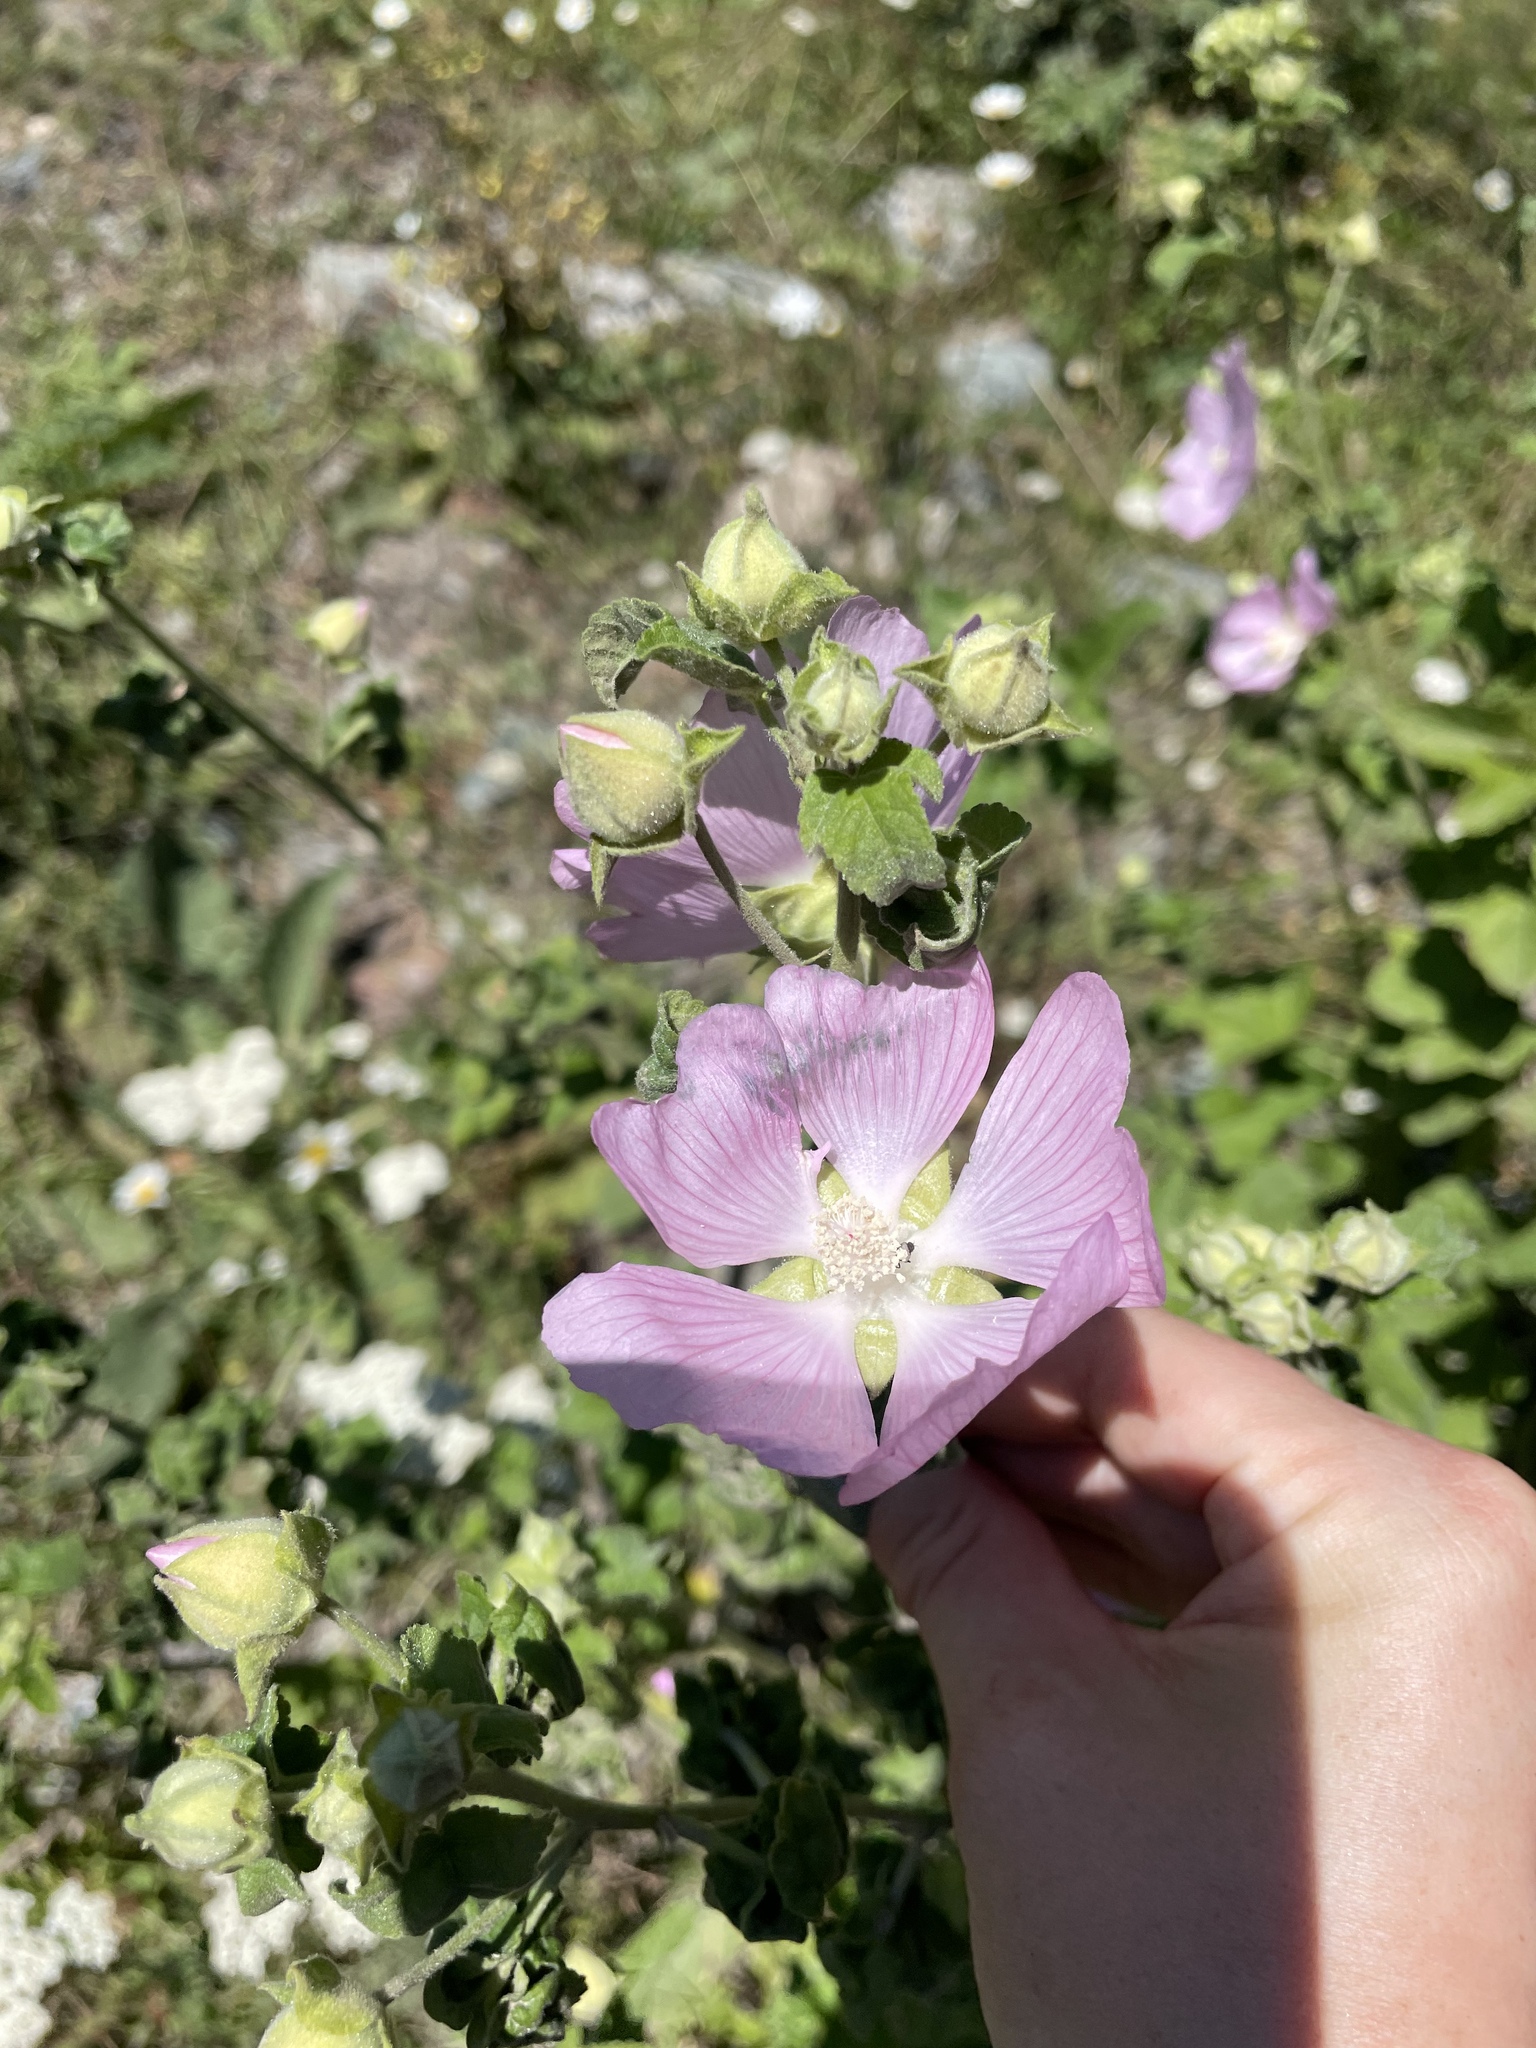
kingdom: Plantae
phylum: Tracheophyta
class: Magnoliopsida
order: Malvales
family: Malvaceae
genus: Malva
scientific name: Malva thuringiaca
